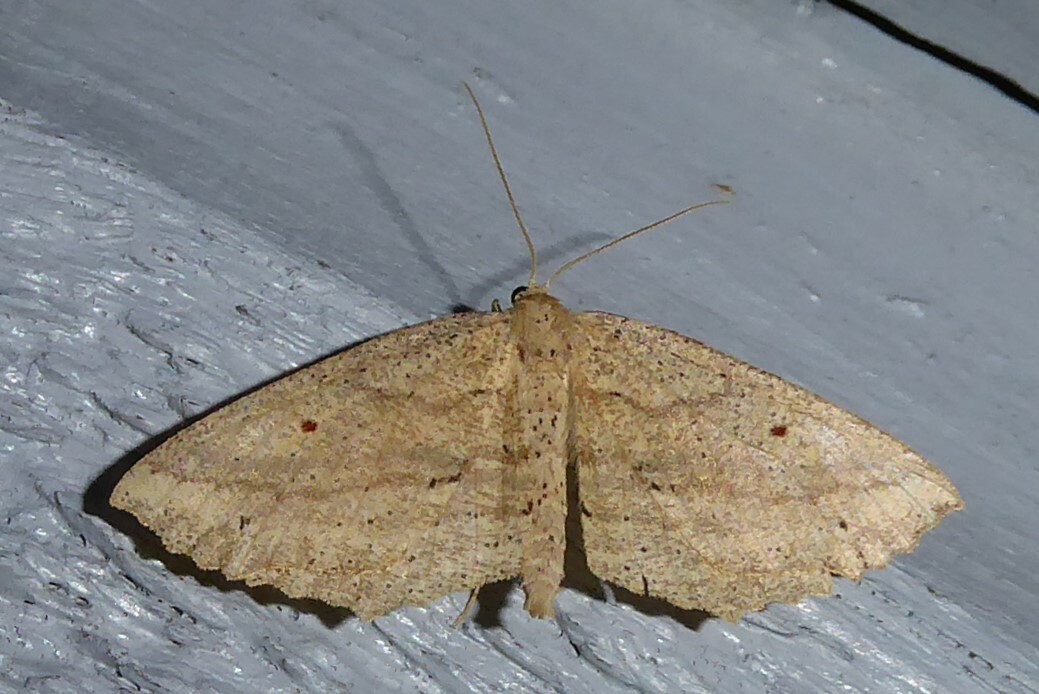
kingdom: Animalia
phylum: Arthropoda
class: Insecta
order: Lepidoptera
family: Geometridae
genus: Xyridacma
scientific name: Xyridacma veronicae
